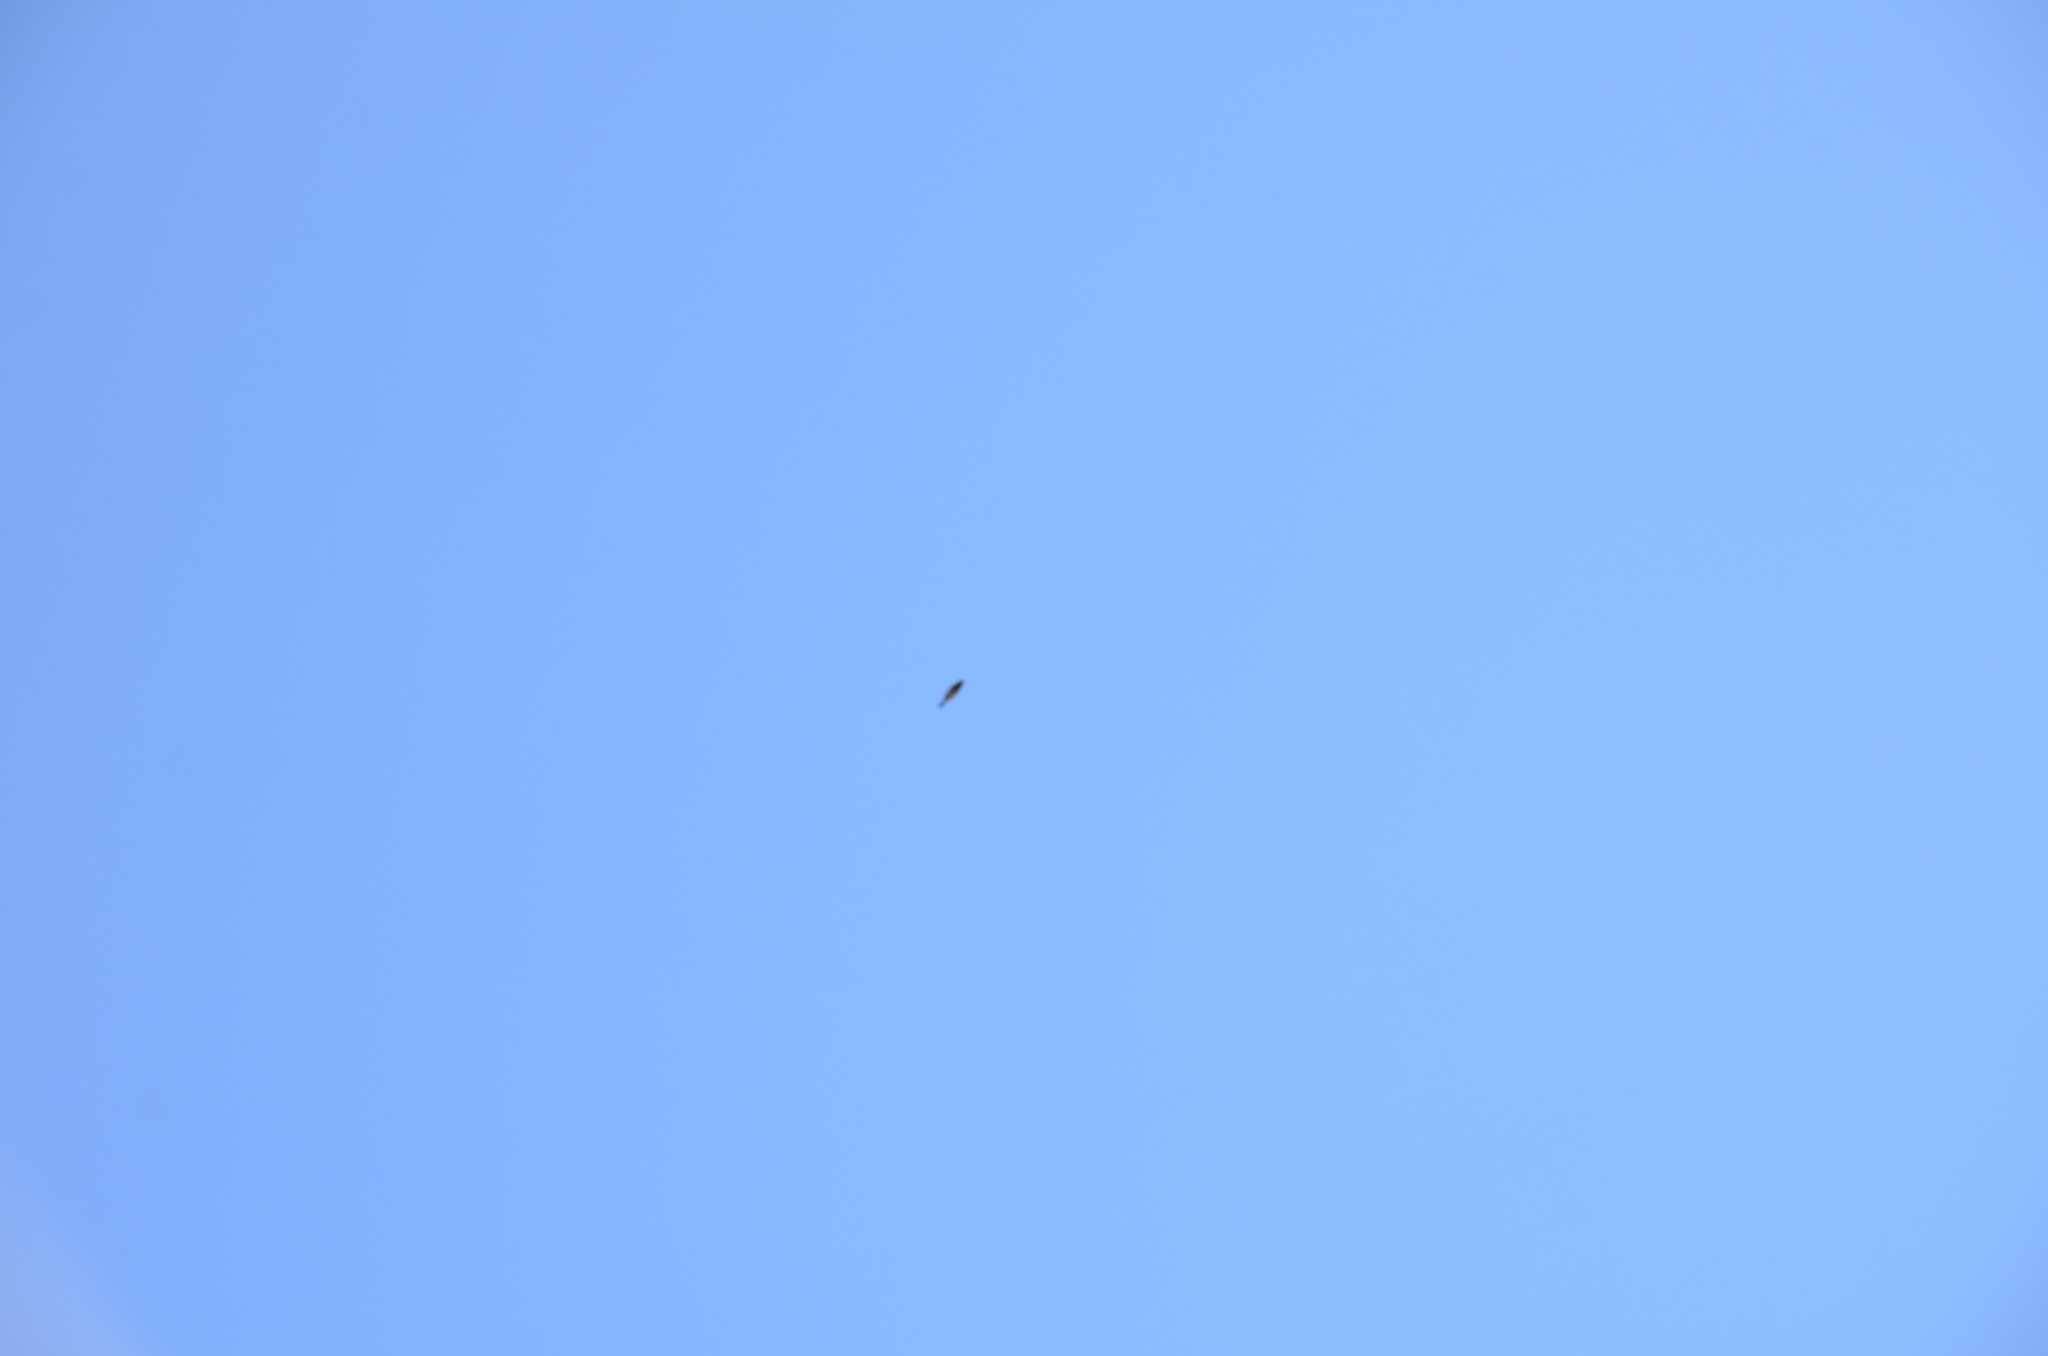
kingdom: Animalia
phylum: Chordata
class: Aves
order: Passeriformes
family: Bombycillidae
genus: Bombycilla
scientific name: Bombycilla cedrorum
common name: Cedar waxwing
